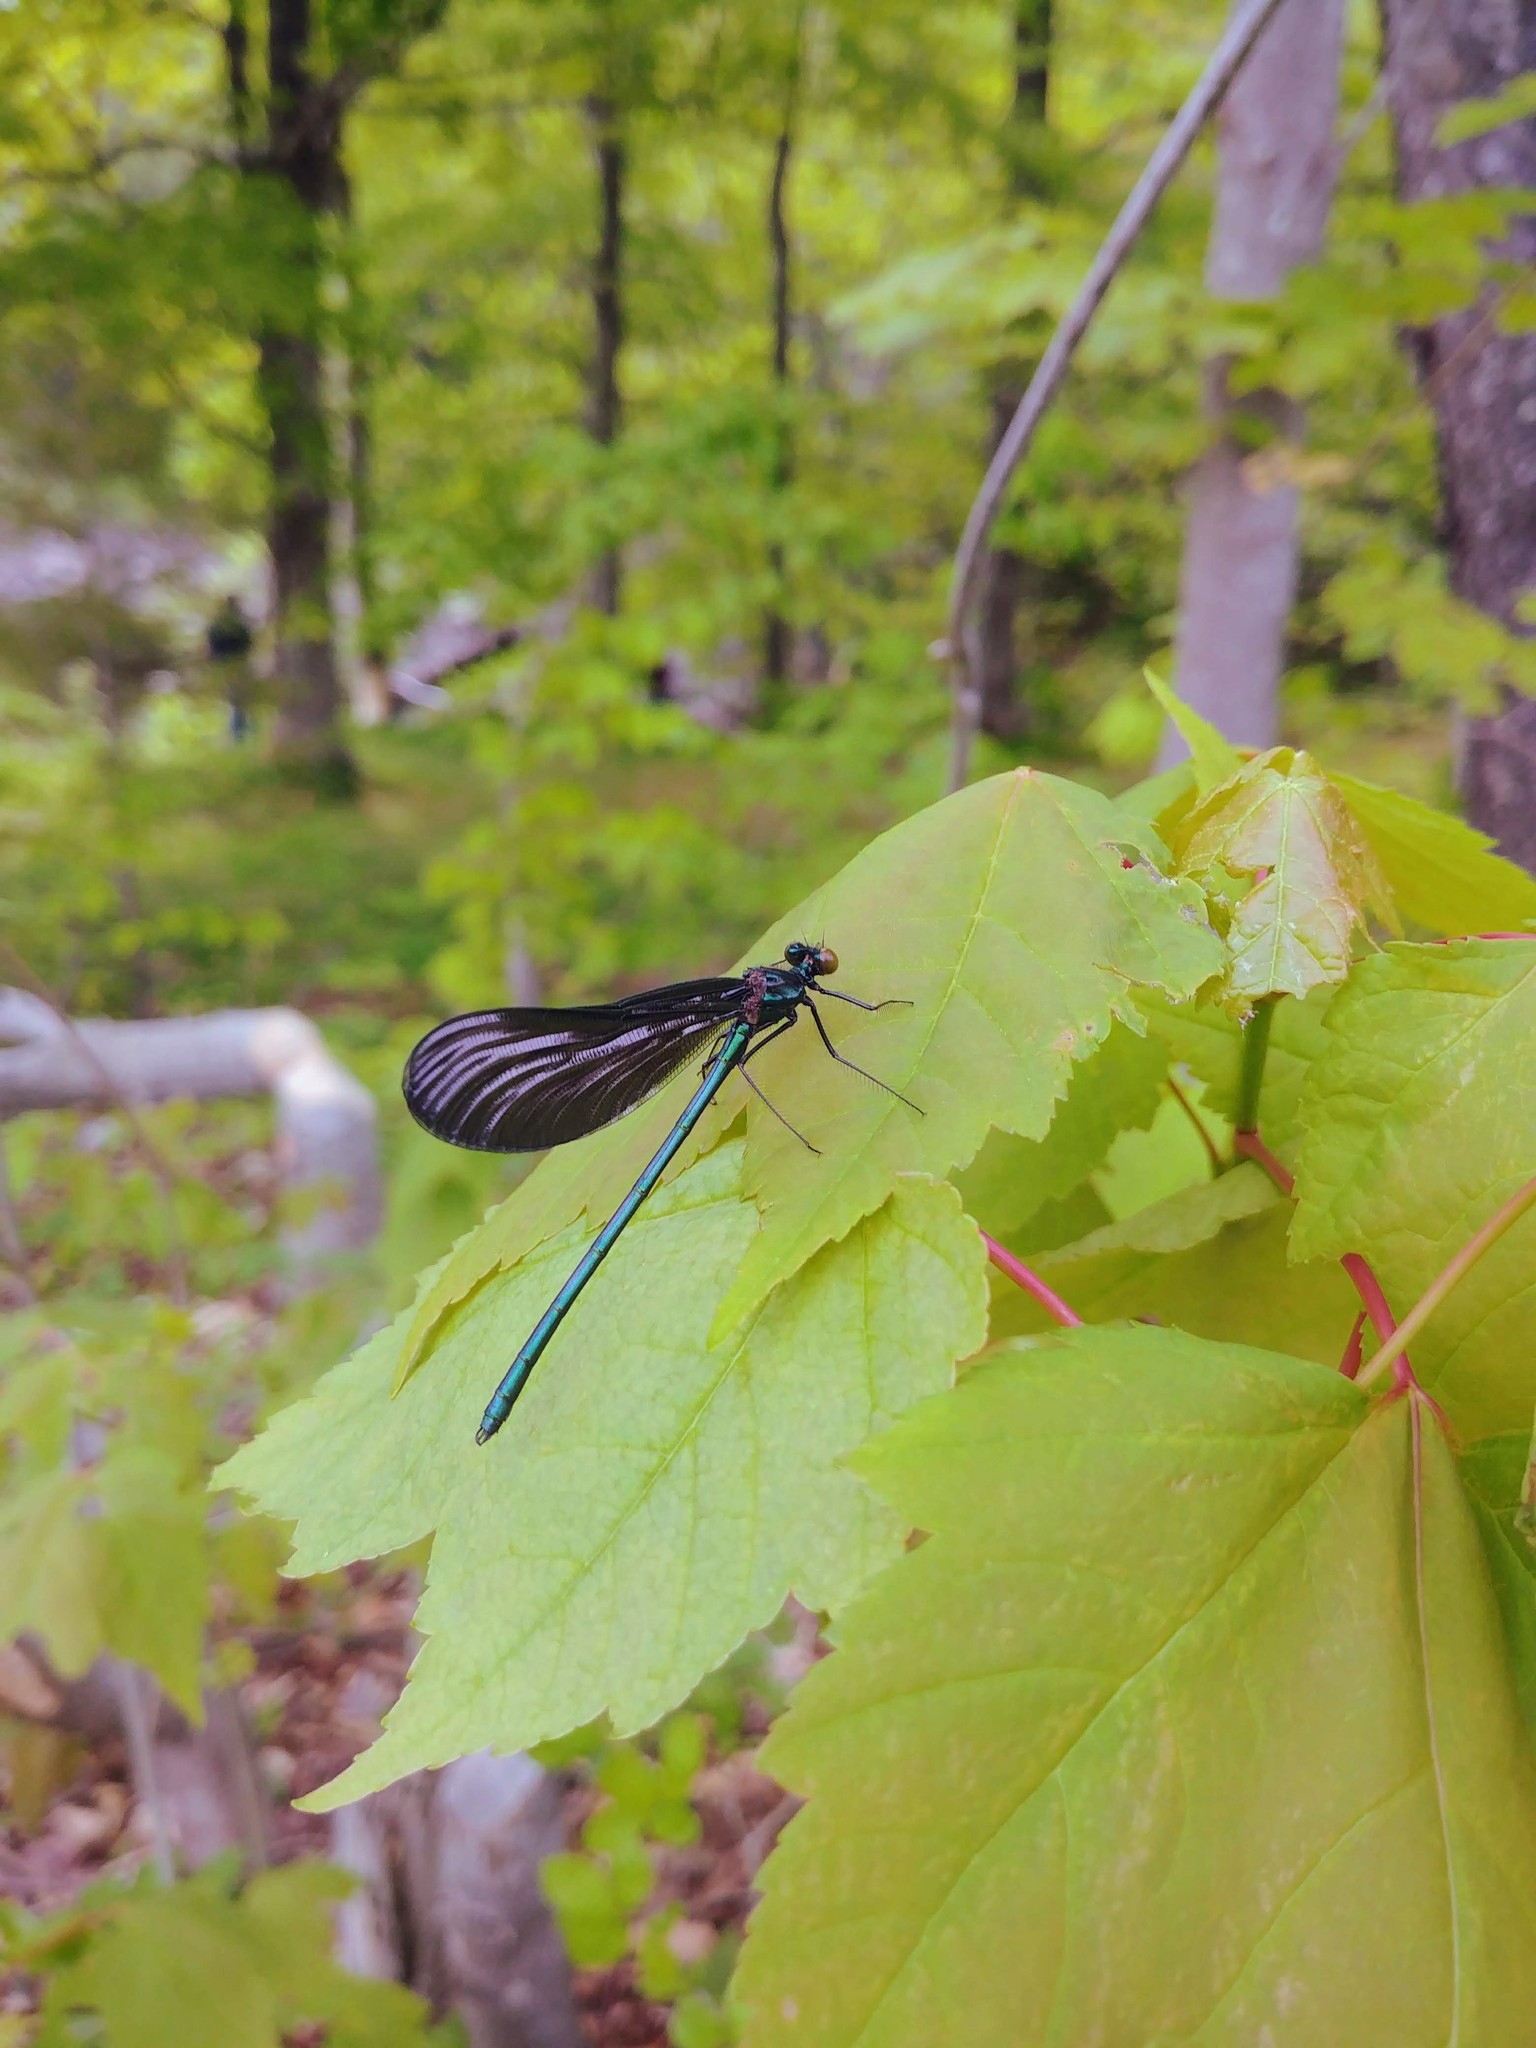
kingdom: Animalia
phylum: Arthropoda
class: Insecta
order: Odonata
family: Calopterygidae
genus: Calopteryx
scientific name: Calopteryx maculata
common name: Ebony jewelwing
